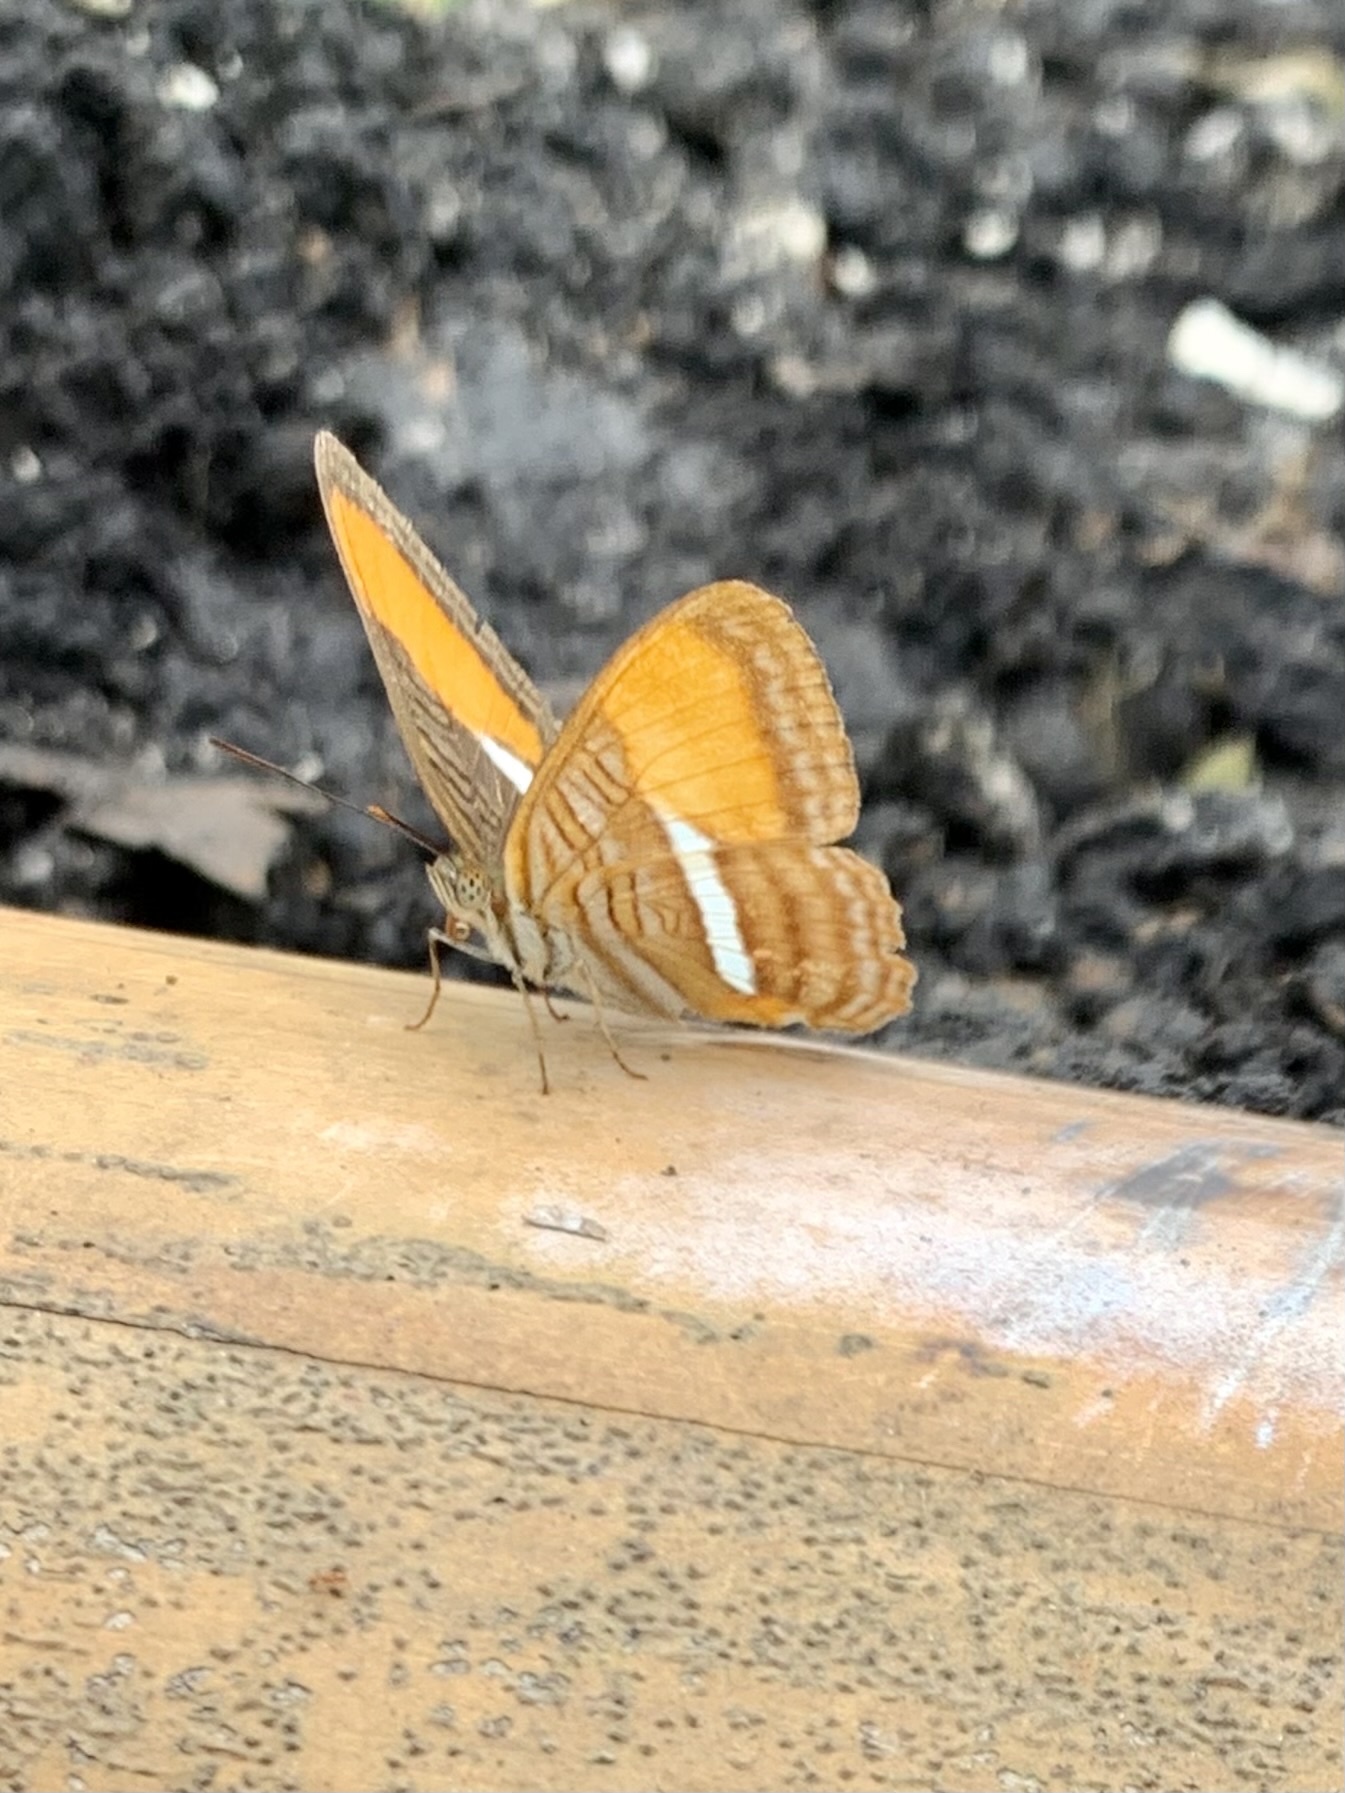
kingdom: Animalia
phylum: Arthropoda
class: Insecta
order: Lepidoptera
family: Nymphalidae
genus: Limenitis
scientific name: Limenitis cytherea
